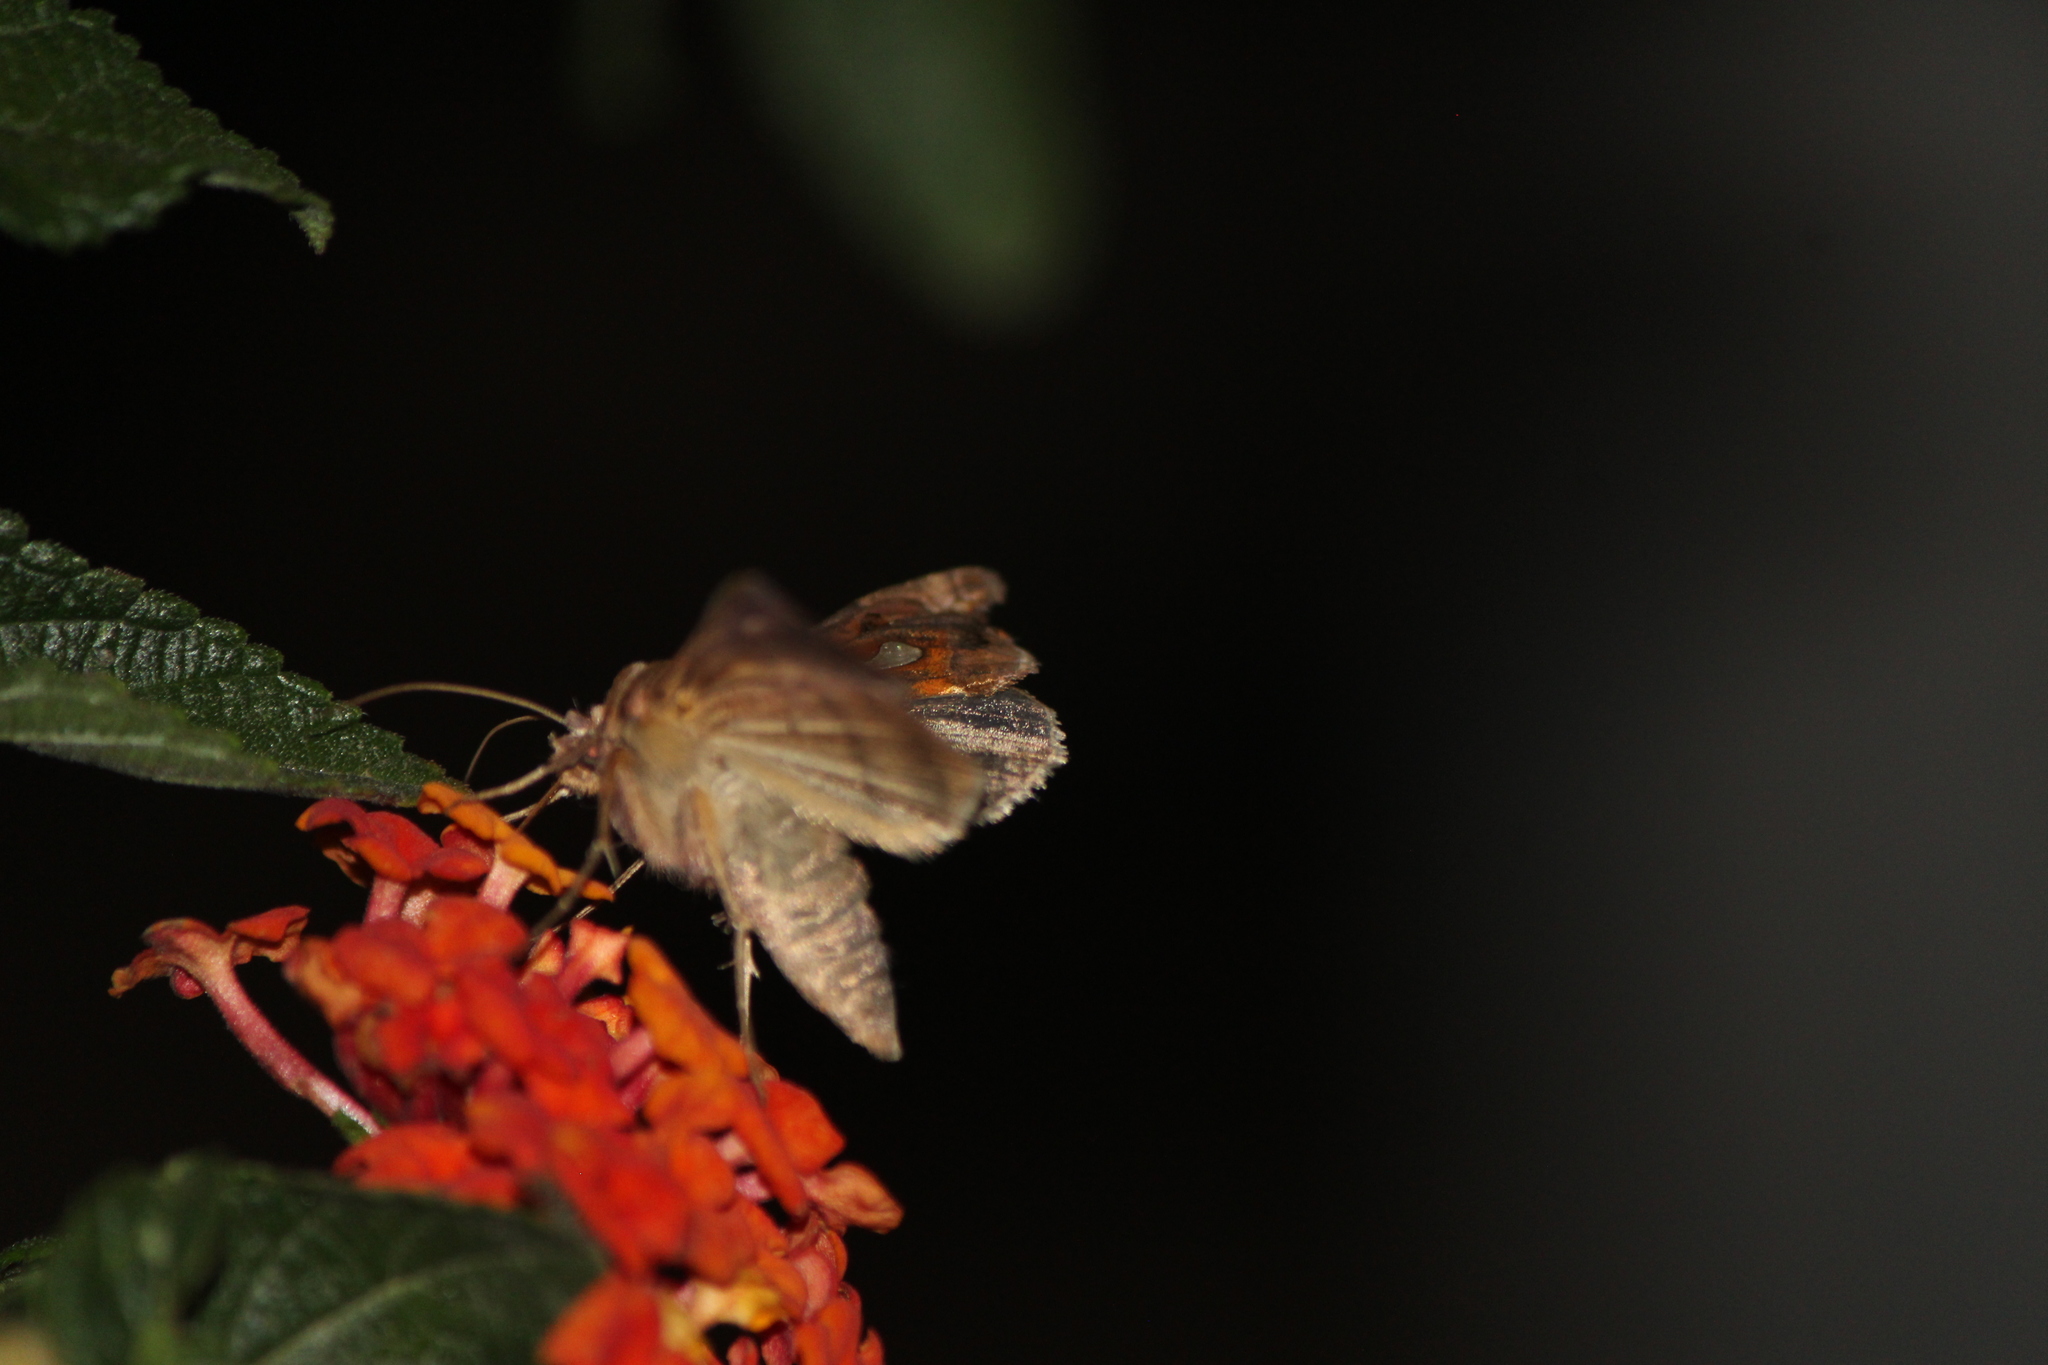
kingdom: Animalia
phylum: Arthropoda
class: Insecta
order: Lepidoptera
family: Noctuidae
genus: Megalographa
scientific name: Megalographa biloba
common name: Cutworm
